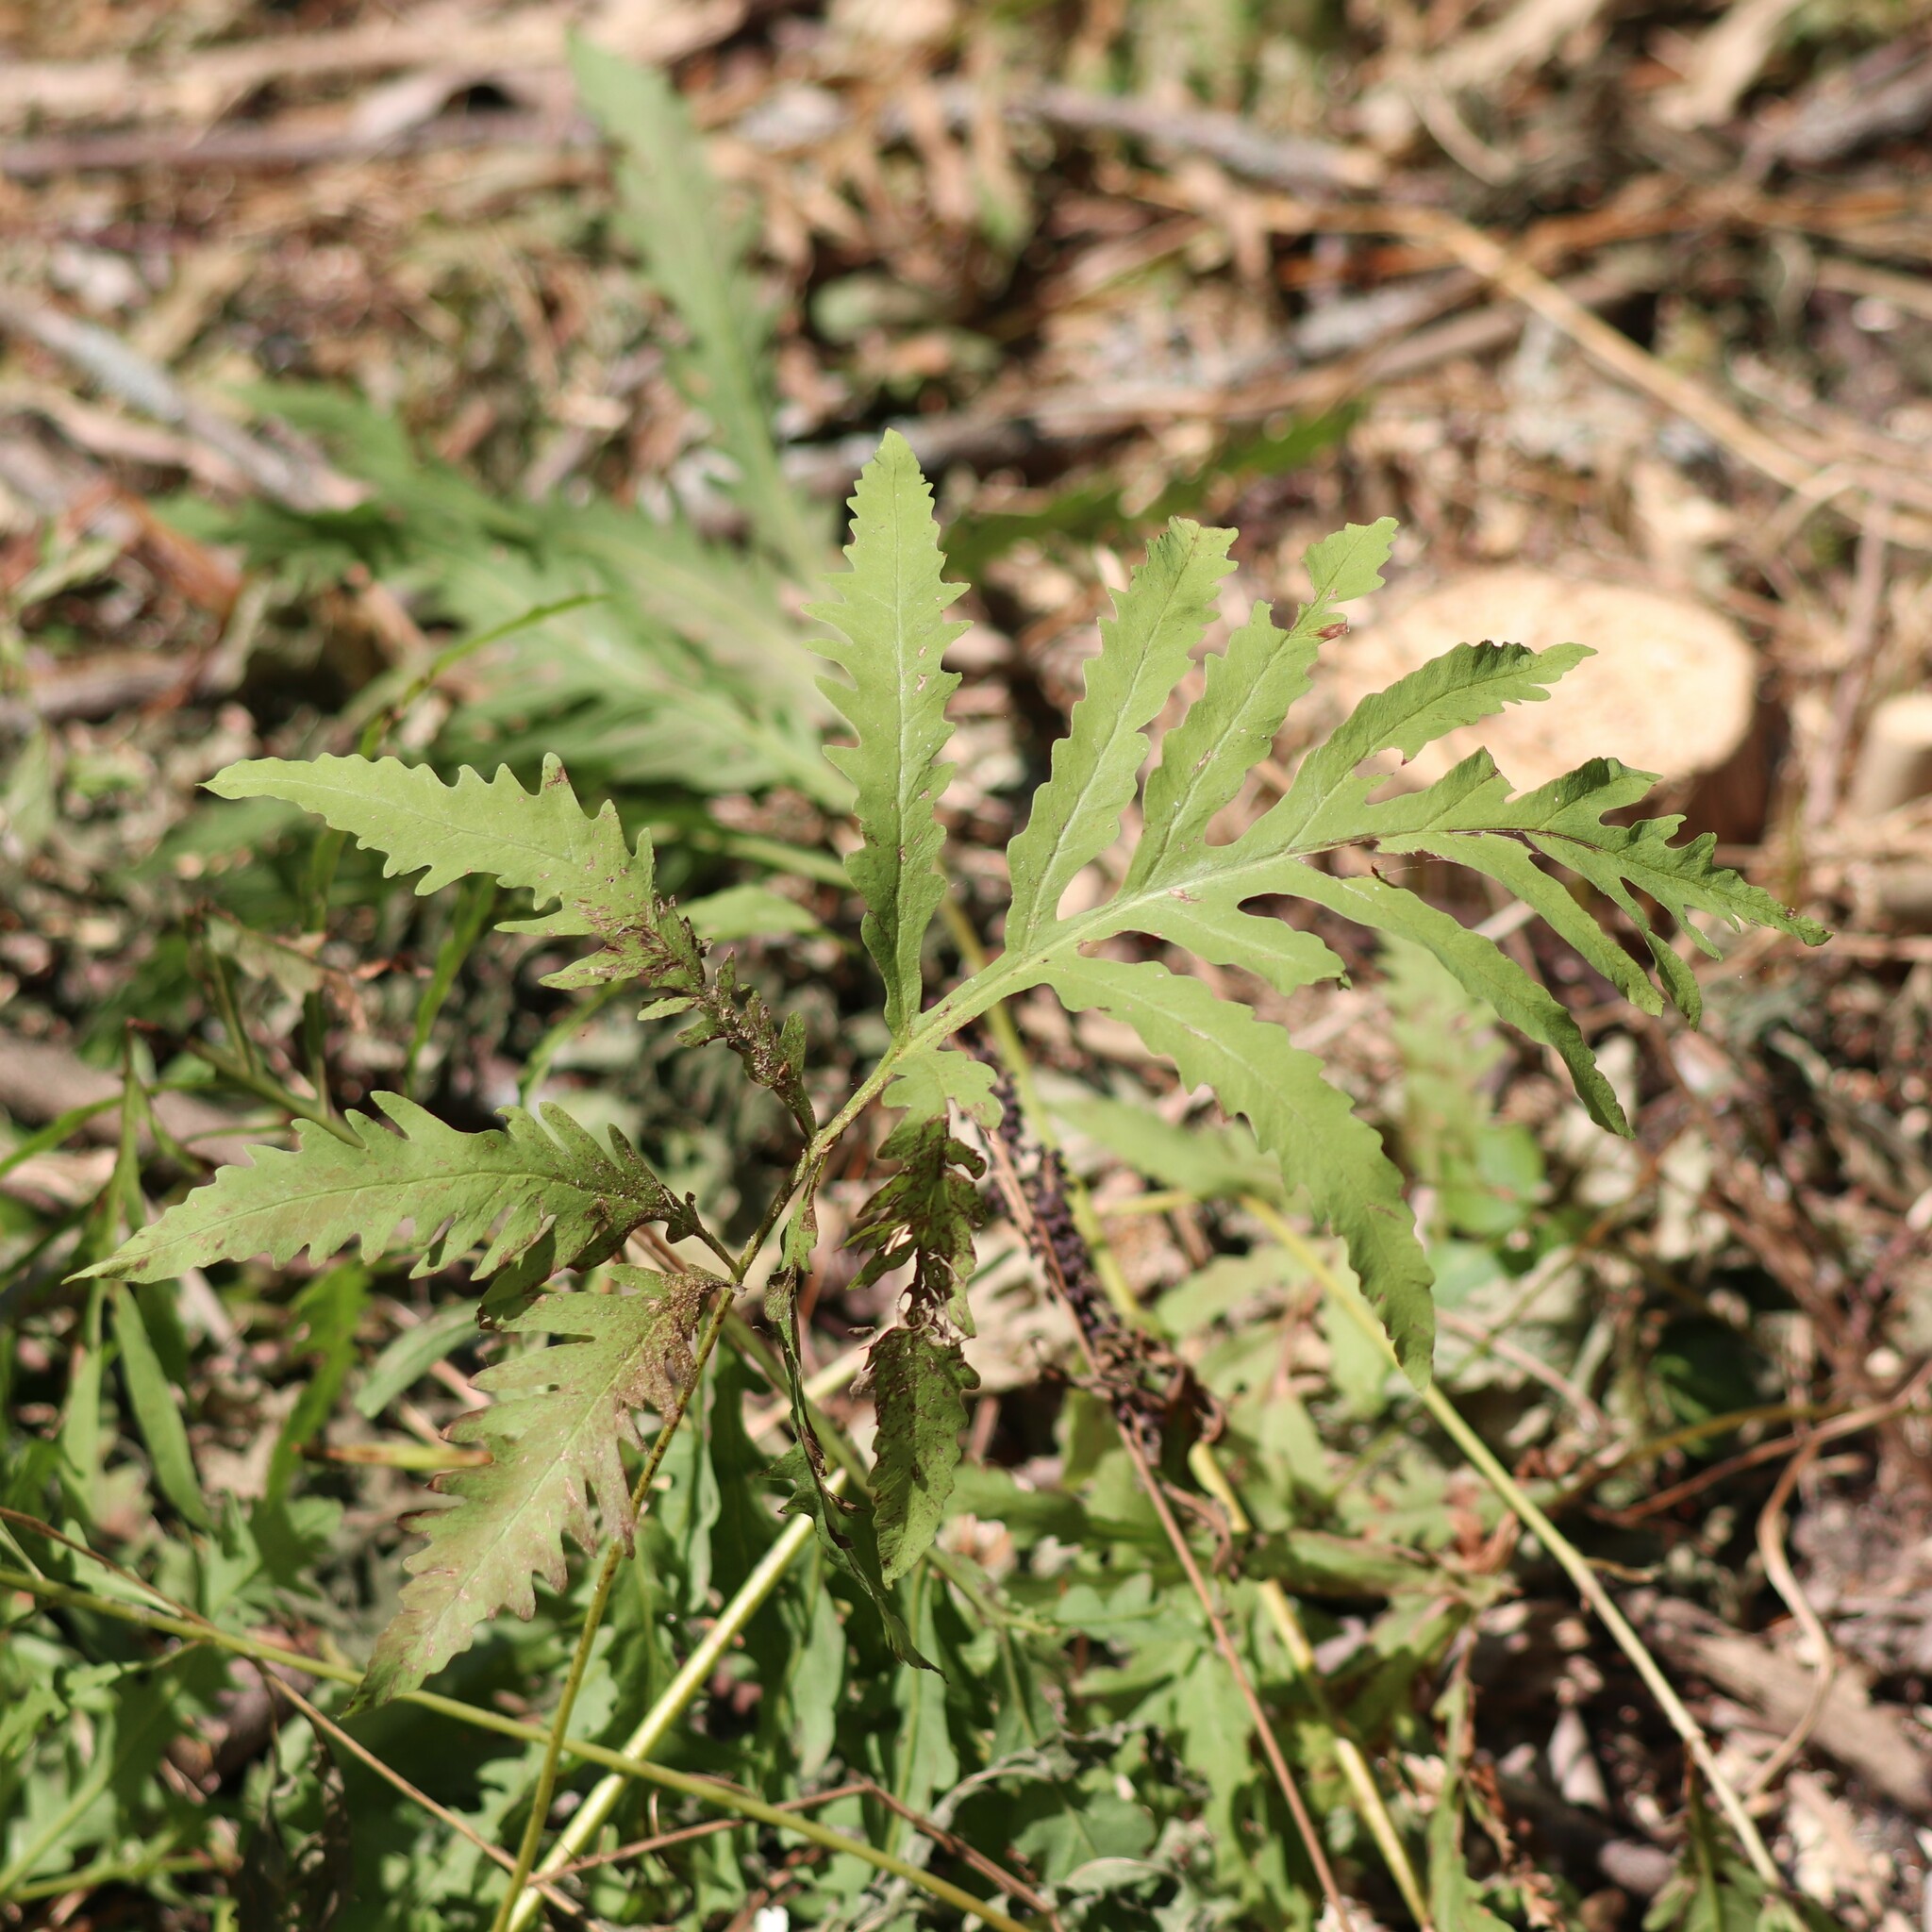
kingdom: Plantae
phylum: Tracheophyta
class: Polypodiopsida
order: Polypodiales
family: Onocleaceae
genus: Onoclea
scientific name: Onoclea sensibilis
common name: Sensitive fern
